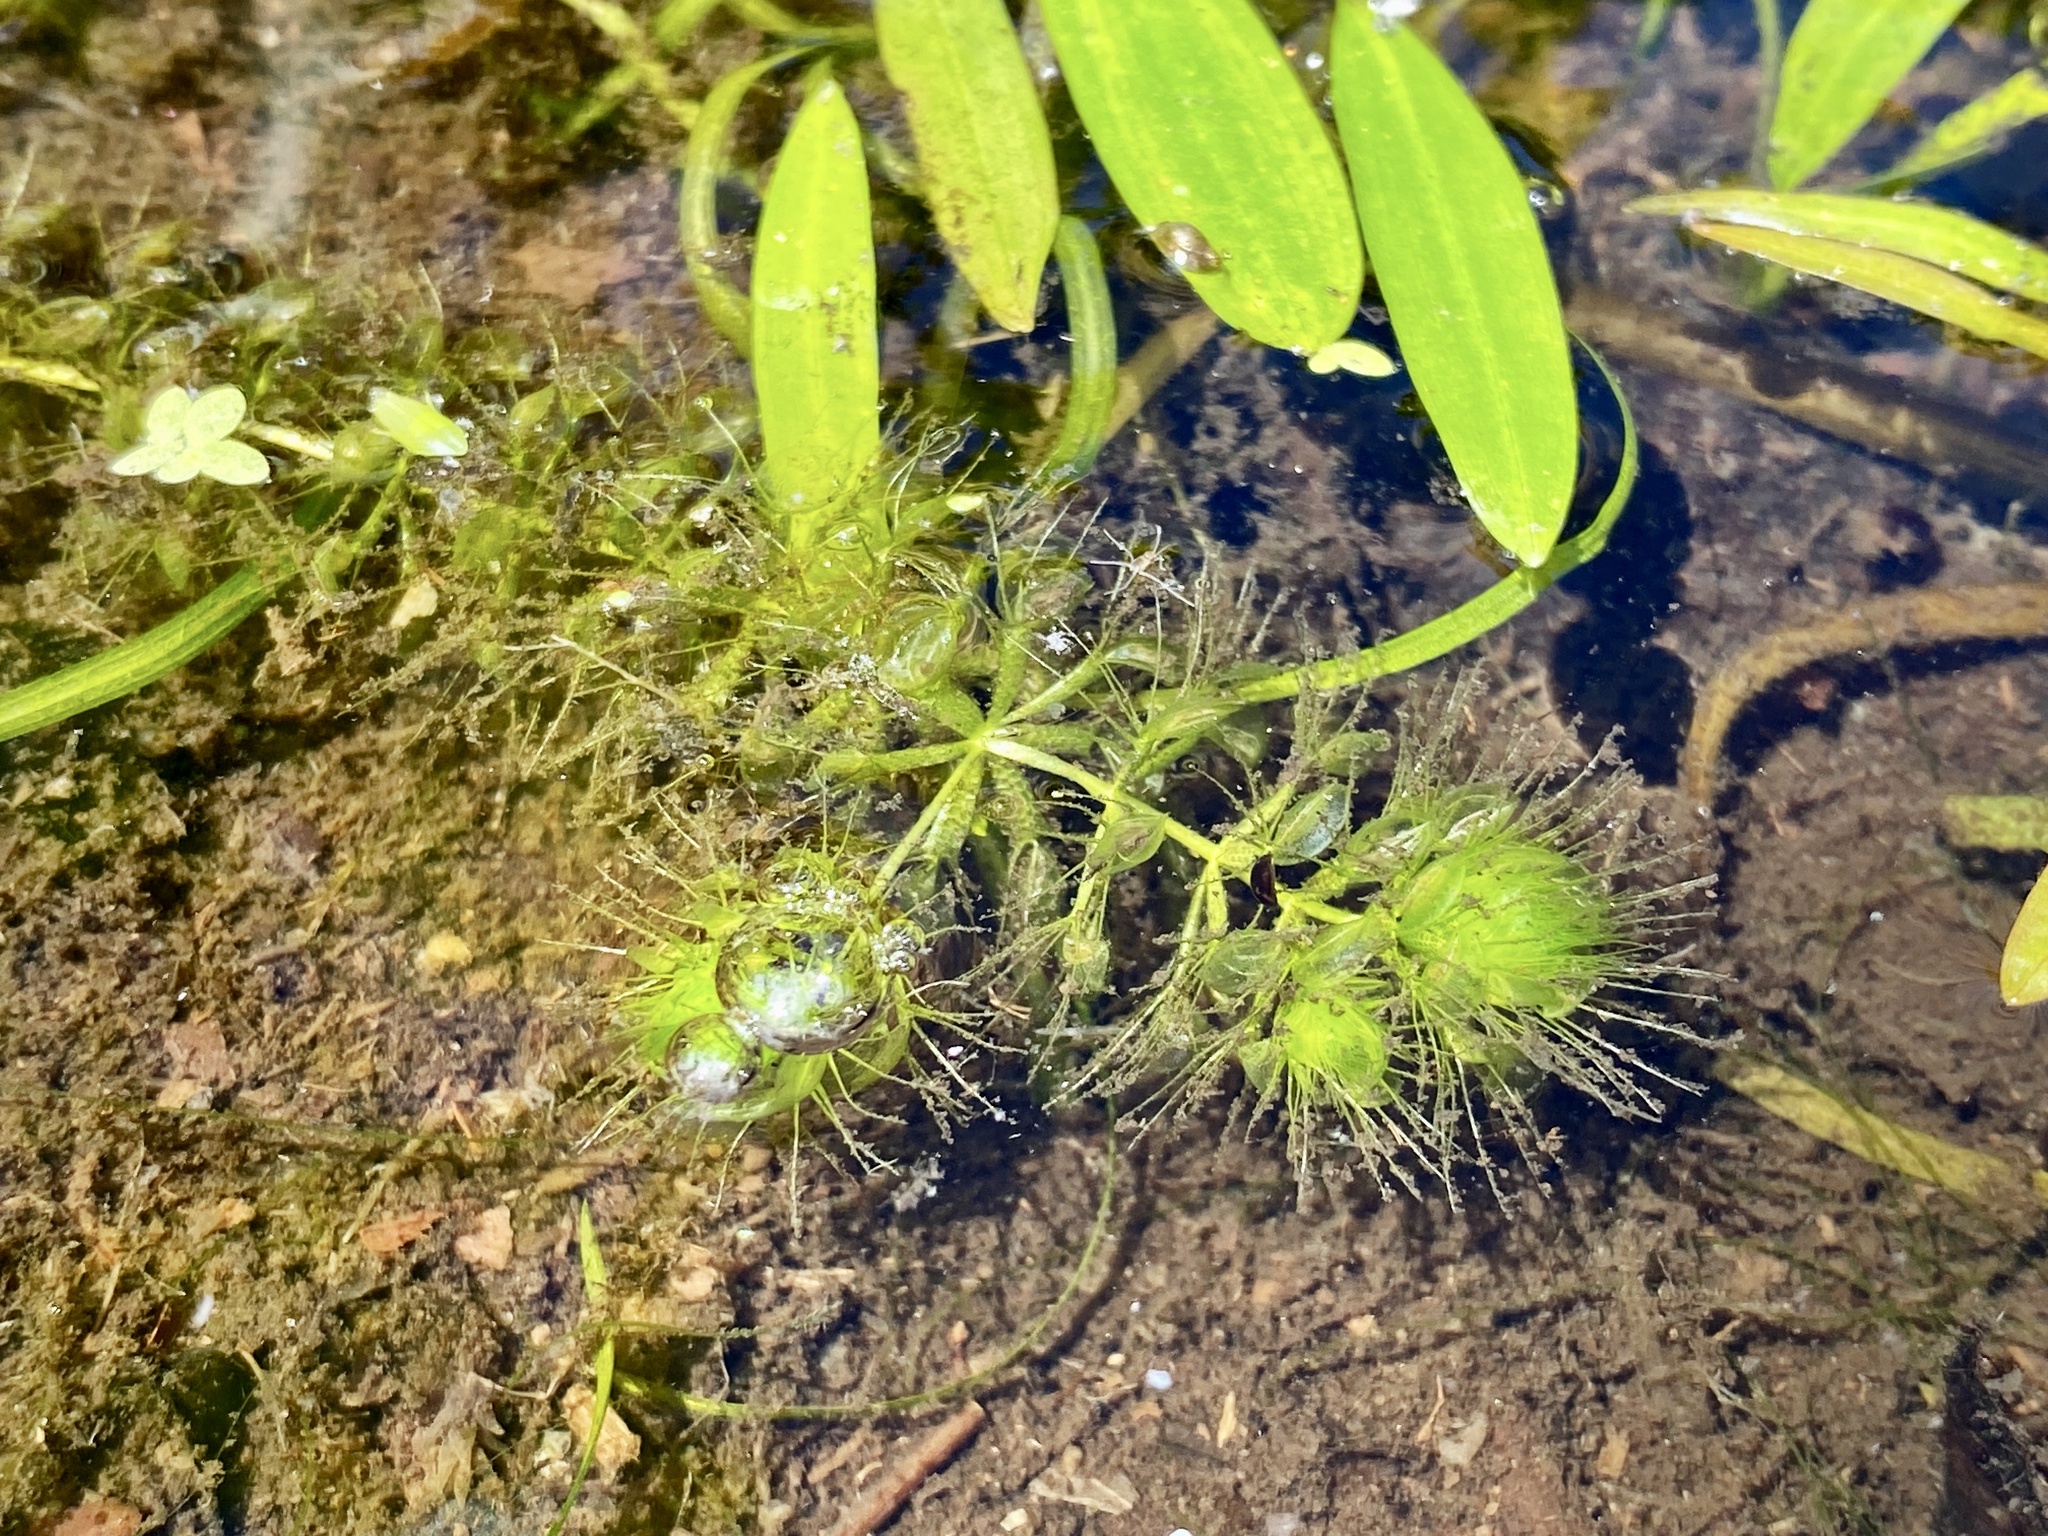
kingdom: Plantae
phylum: Tracheophyta
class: Magnoliopsida
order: Caryophyllales
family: Droseraceae
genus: Aldrovanda
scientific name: Aldrovanda vesiculosa
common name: Waterwheel plant
